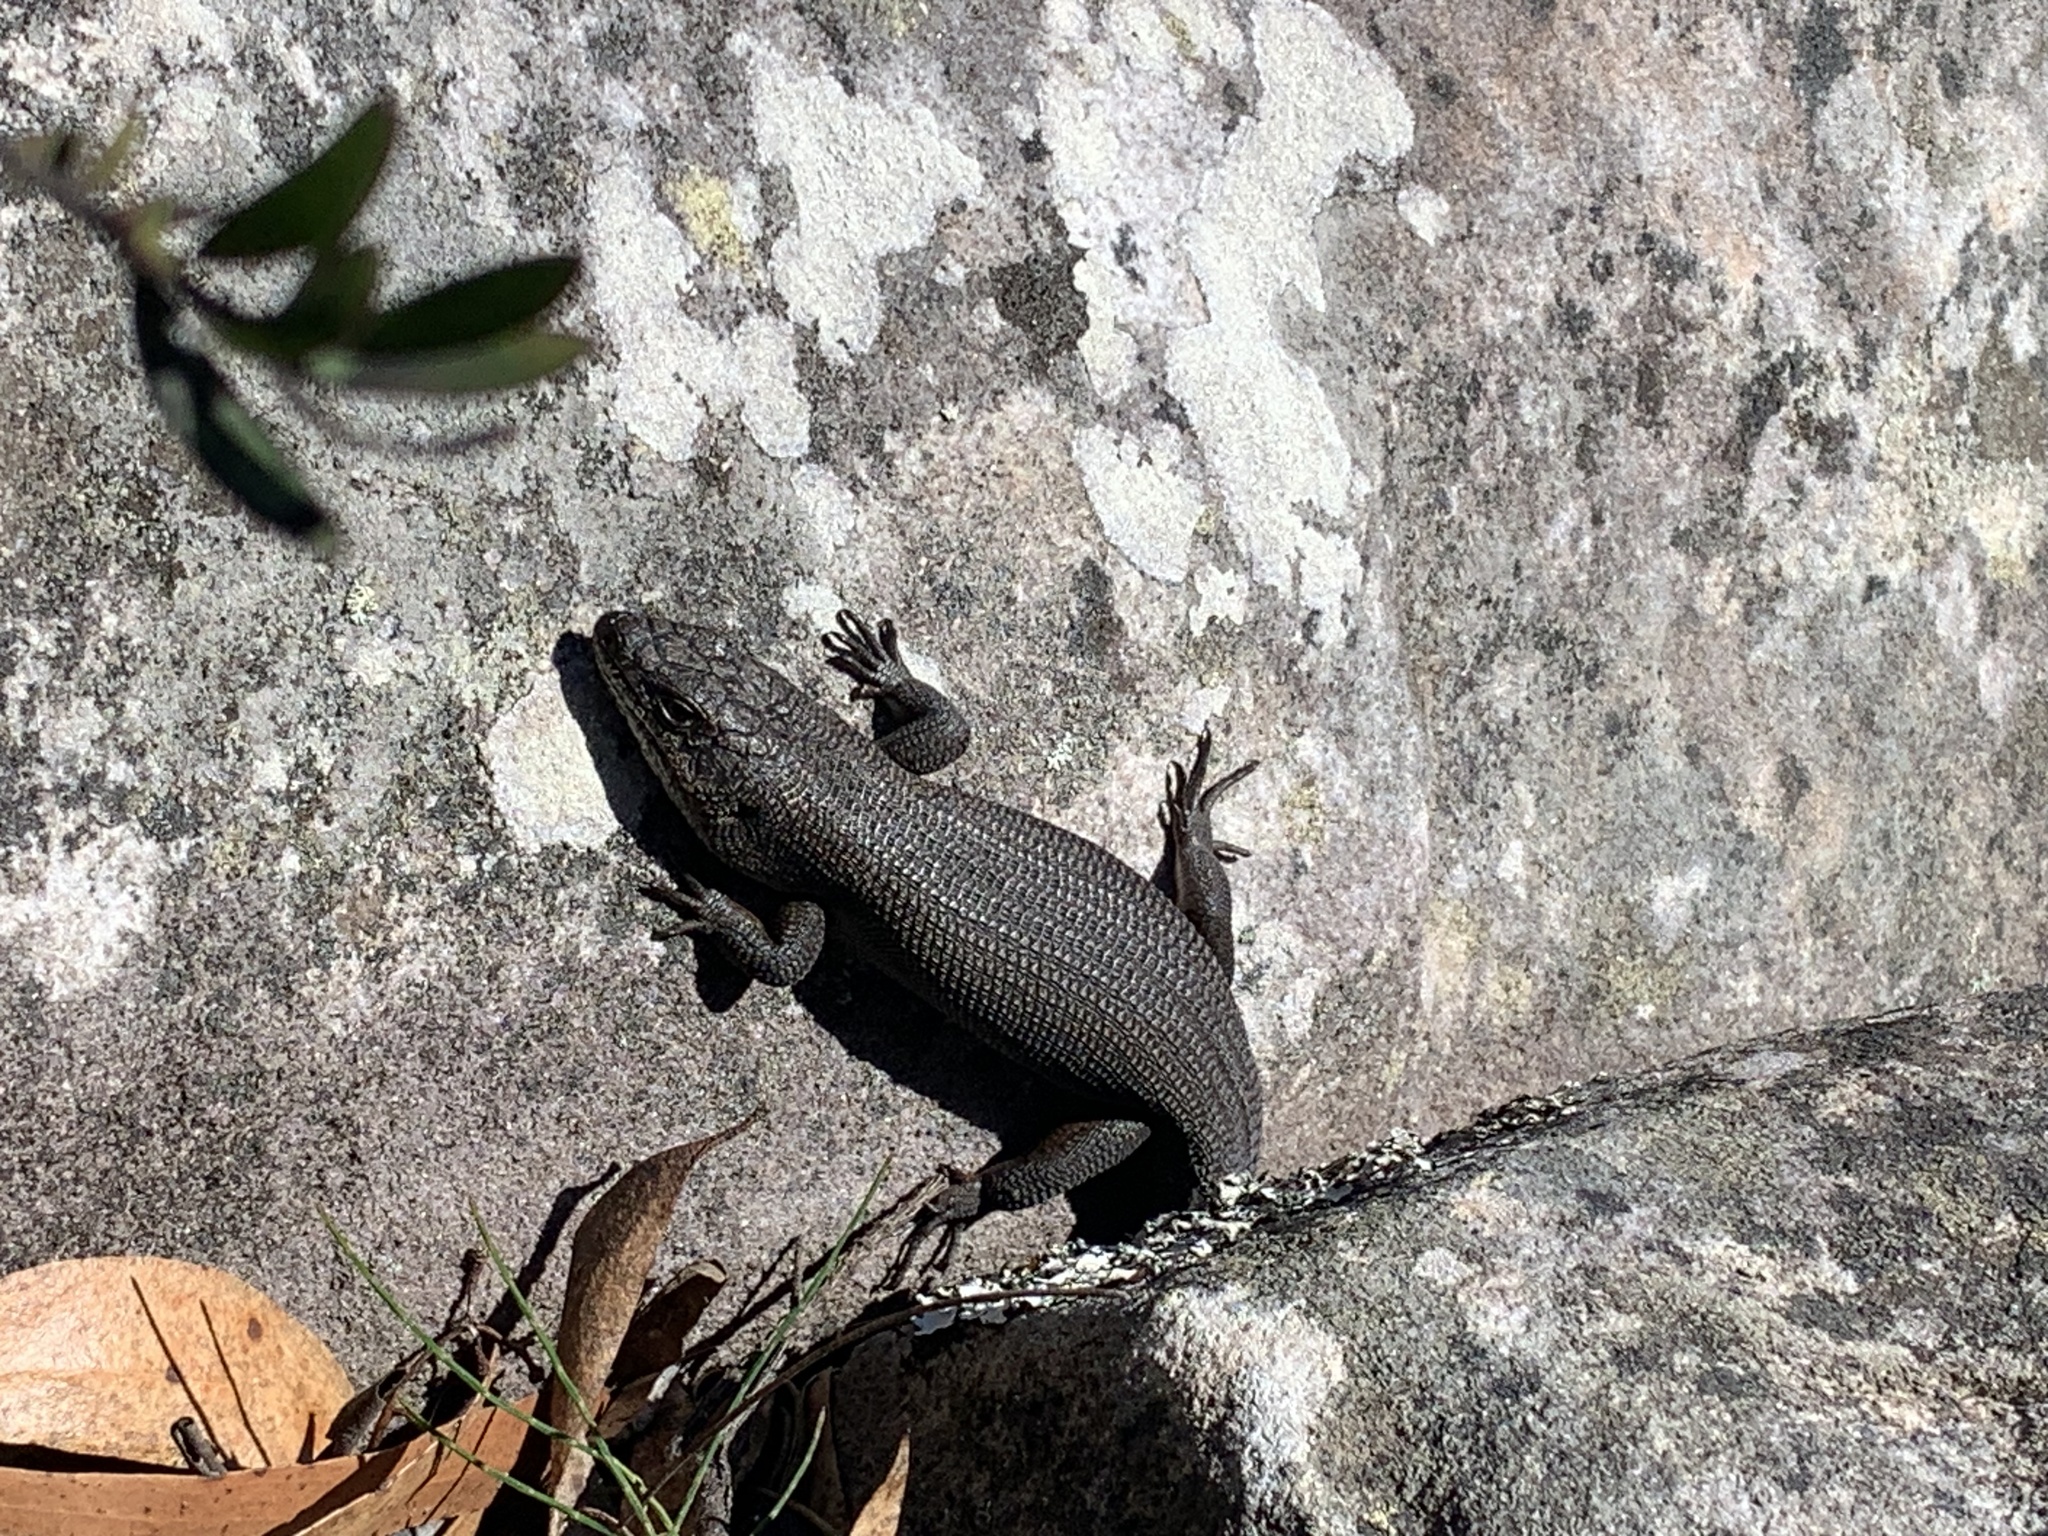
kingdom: Animalia
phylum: Chordata
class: Squamata
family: Scincidae
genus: Egernia
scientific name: Egernia saxatilis
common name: Black crevice-skink
